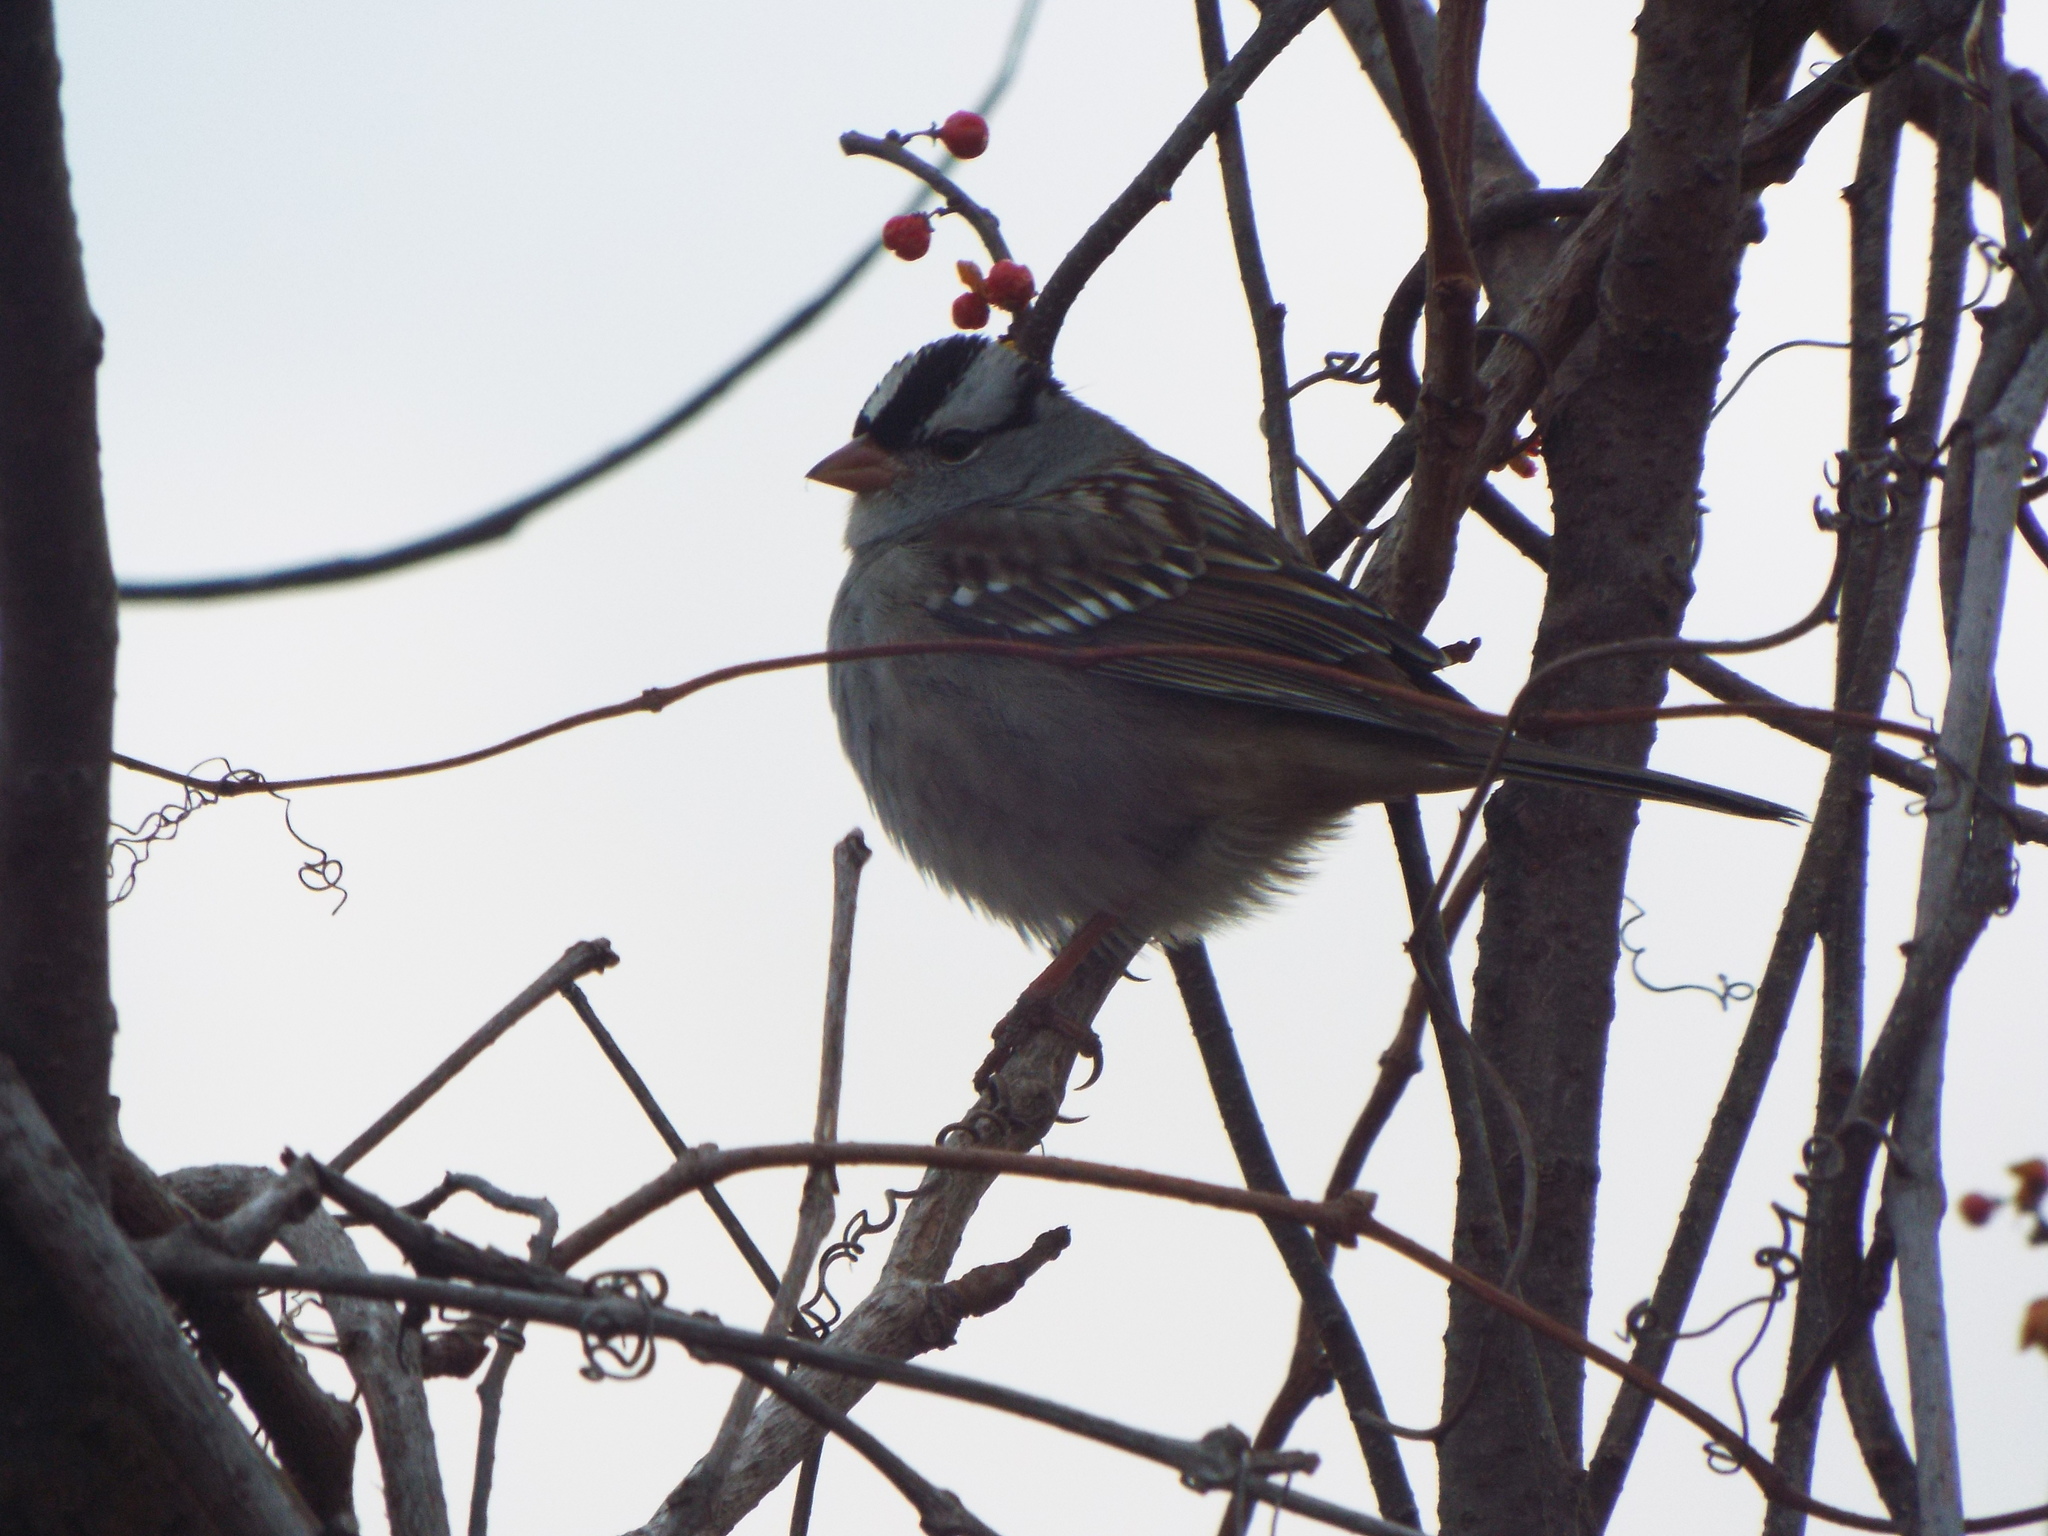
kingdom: Animalia
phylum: Chordata
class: Aves
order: Passeriformes
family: Passerellidae
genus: Zonotrichia
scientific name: Zonotrichia leucophrys
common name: White-crowned sparrow
